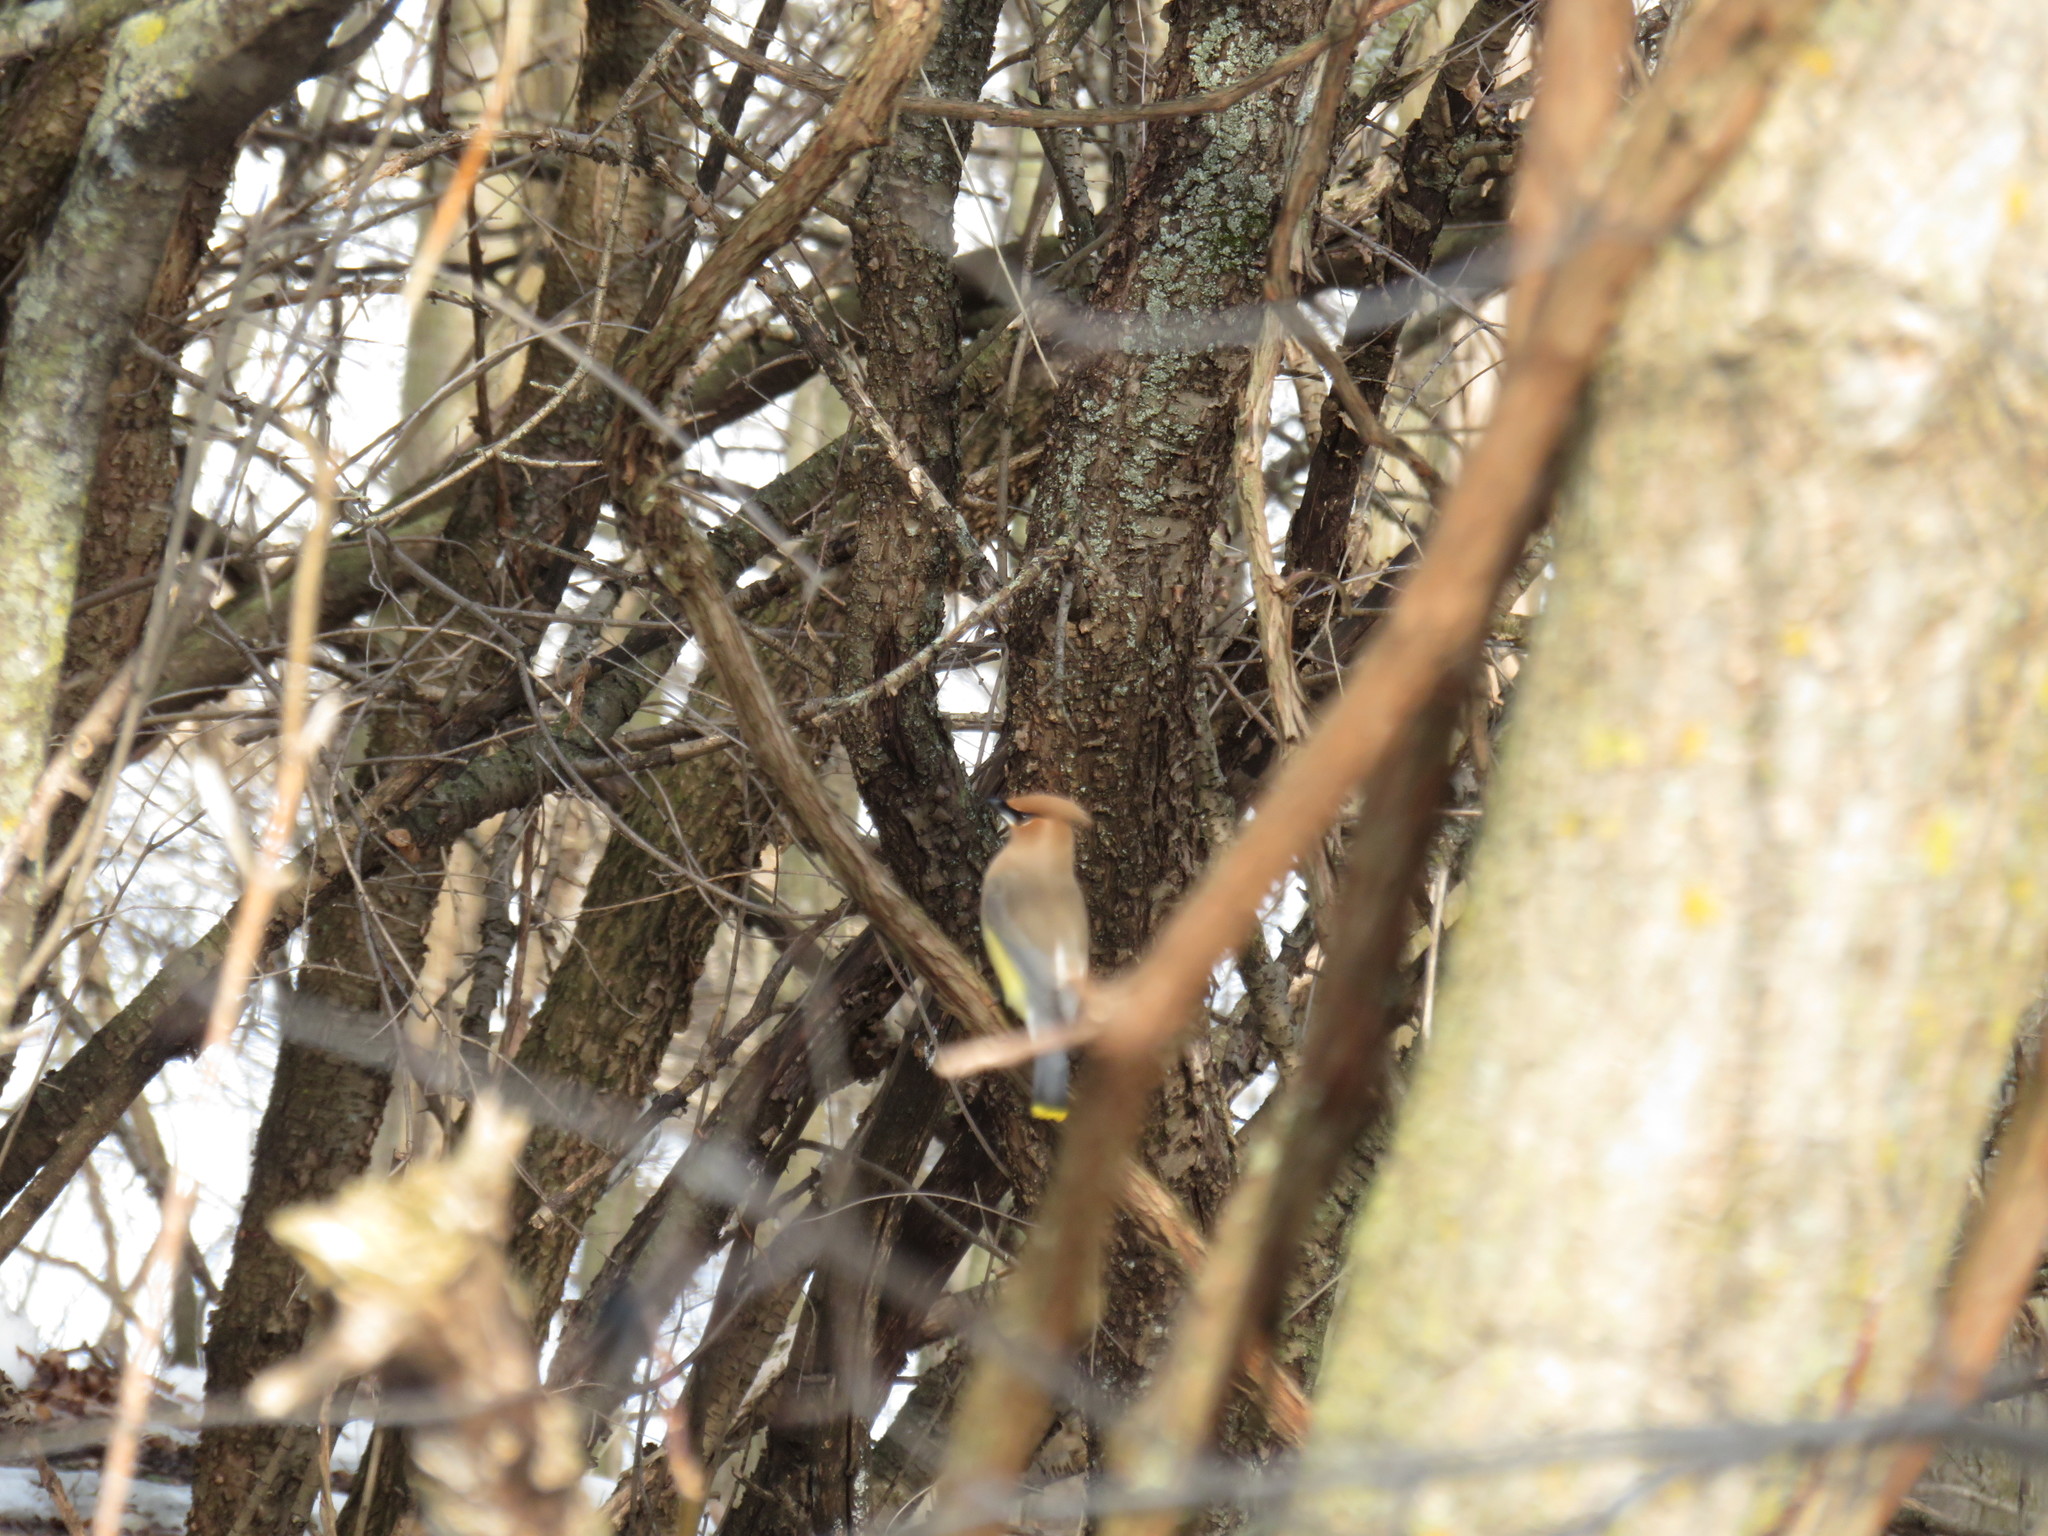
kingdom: Animalia
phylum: Chordata
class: Aves
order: Passeriformes
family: Bombycillidae
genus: Bombycilla
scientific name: Bombycilla cedrorum
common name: Cedar waxwing
